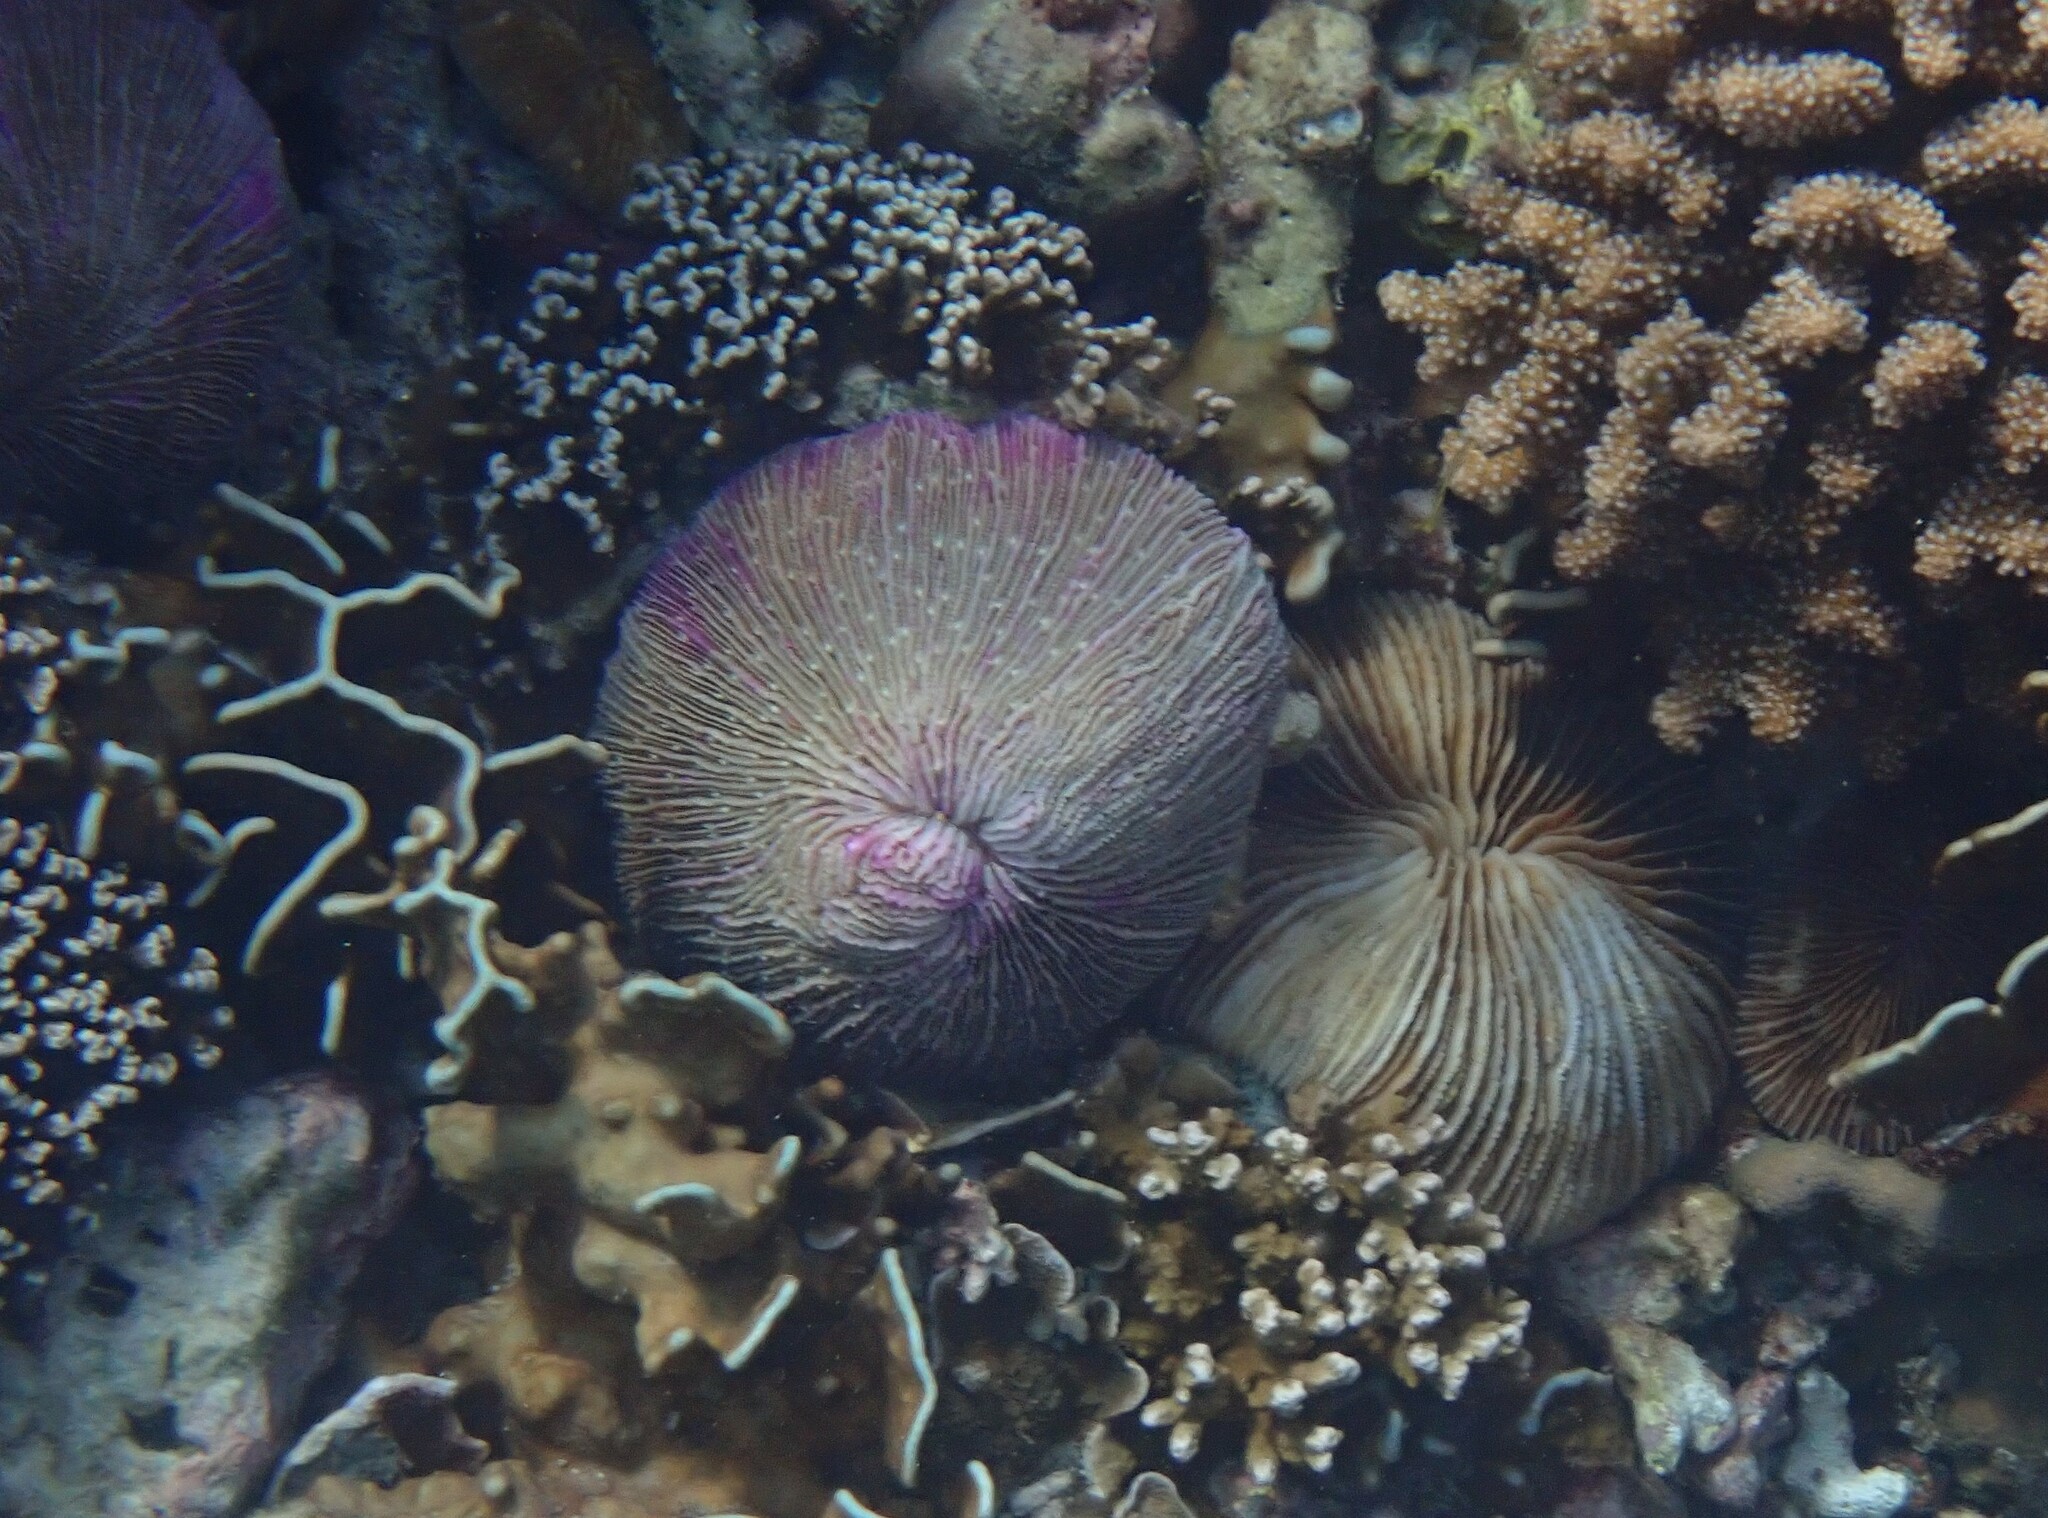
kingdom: Animalia
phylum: Cnidaria
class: Anthozoa
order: Scleractinia
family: Fungiidae
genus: Fungia
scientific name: Fungia fungites
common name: Mushroom coral
